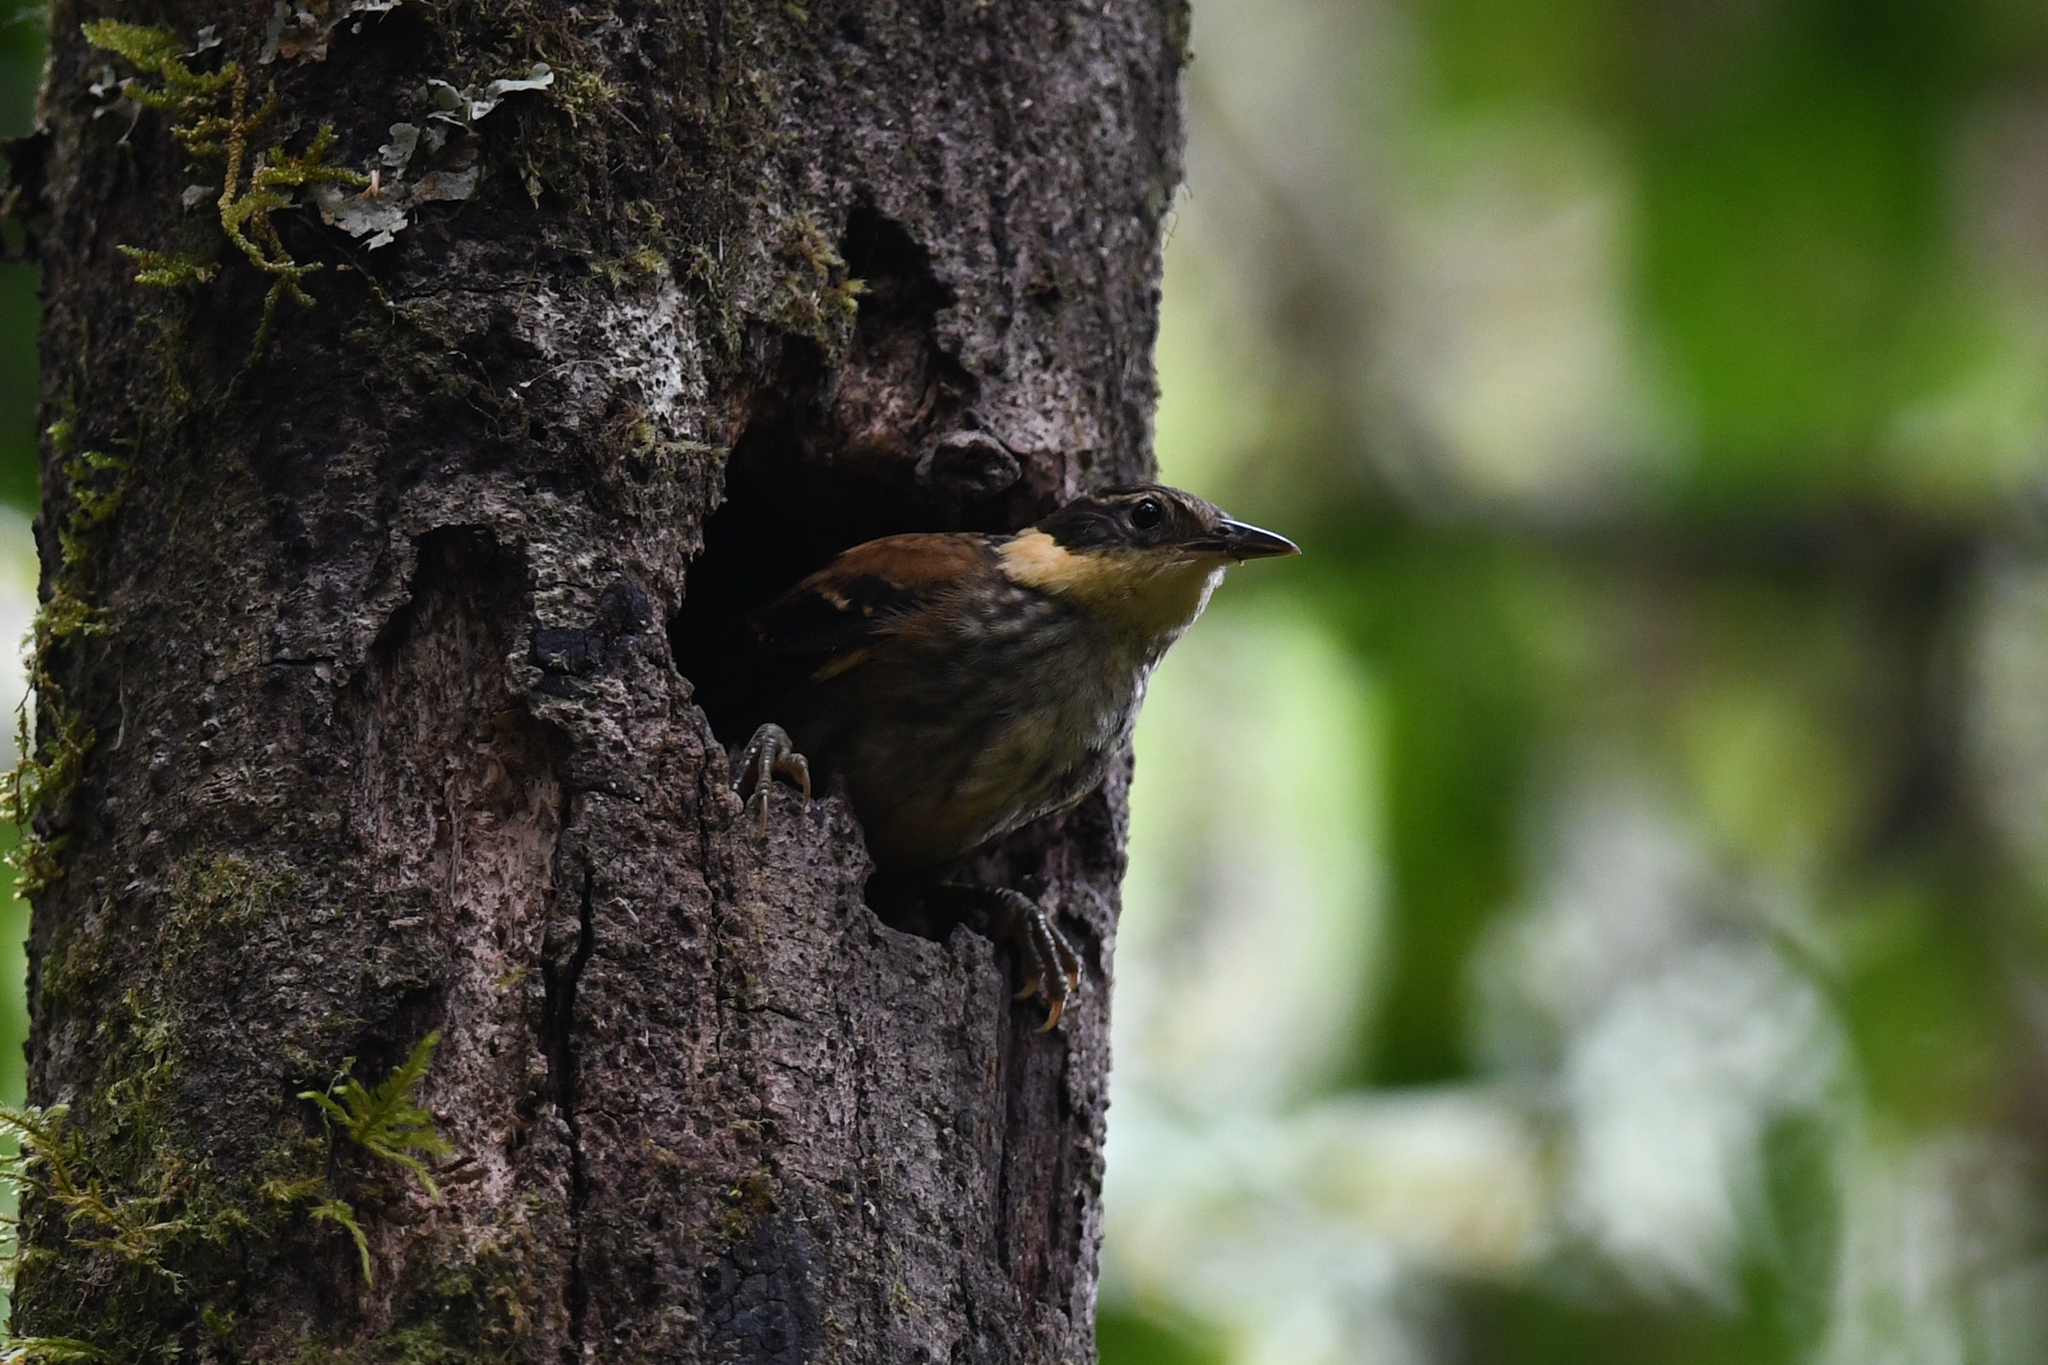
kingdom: Animalia
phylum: Chordata
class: Aves
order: Passeriformes
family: Furnariidae
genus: Pseudocolaptes
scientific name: Pseudocolaptes lawrencii
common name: Buffy tuftedcheek
